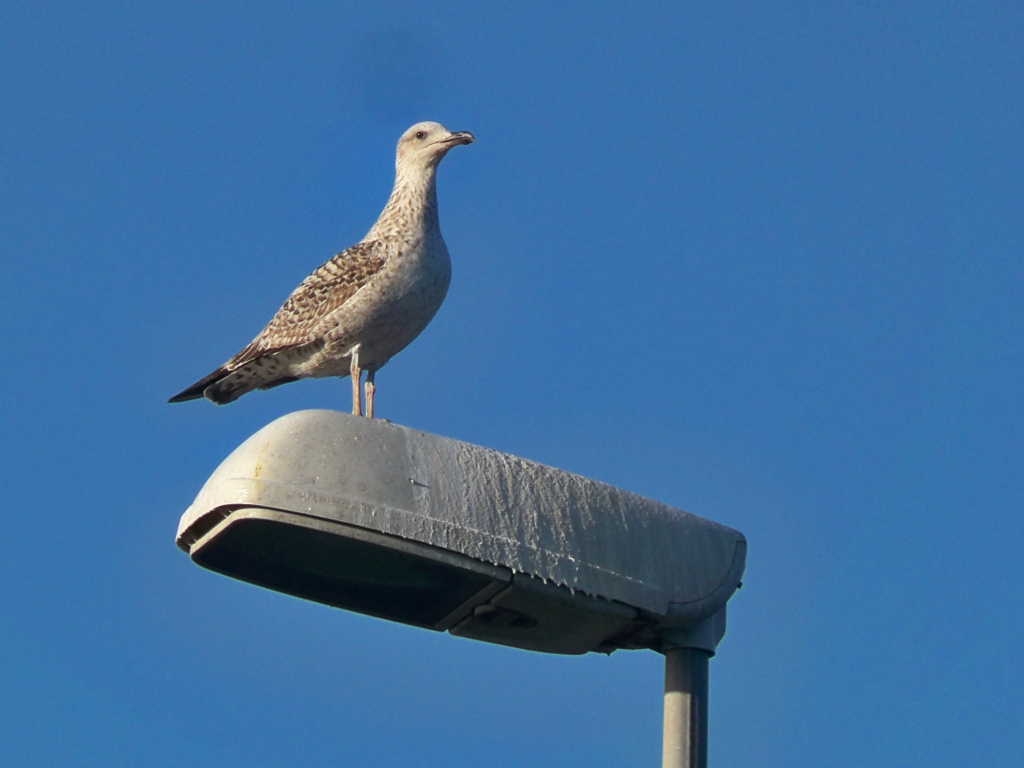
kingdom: Animalia
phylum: Chordata
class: Aves
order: Charadriiformes
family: Laridae
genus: Larus
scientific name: Larus michahellis
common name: Yellow-legged gull
